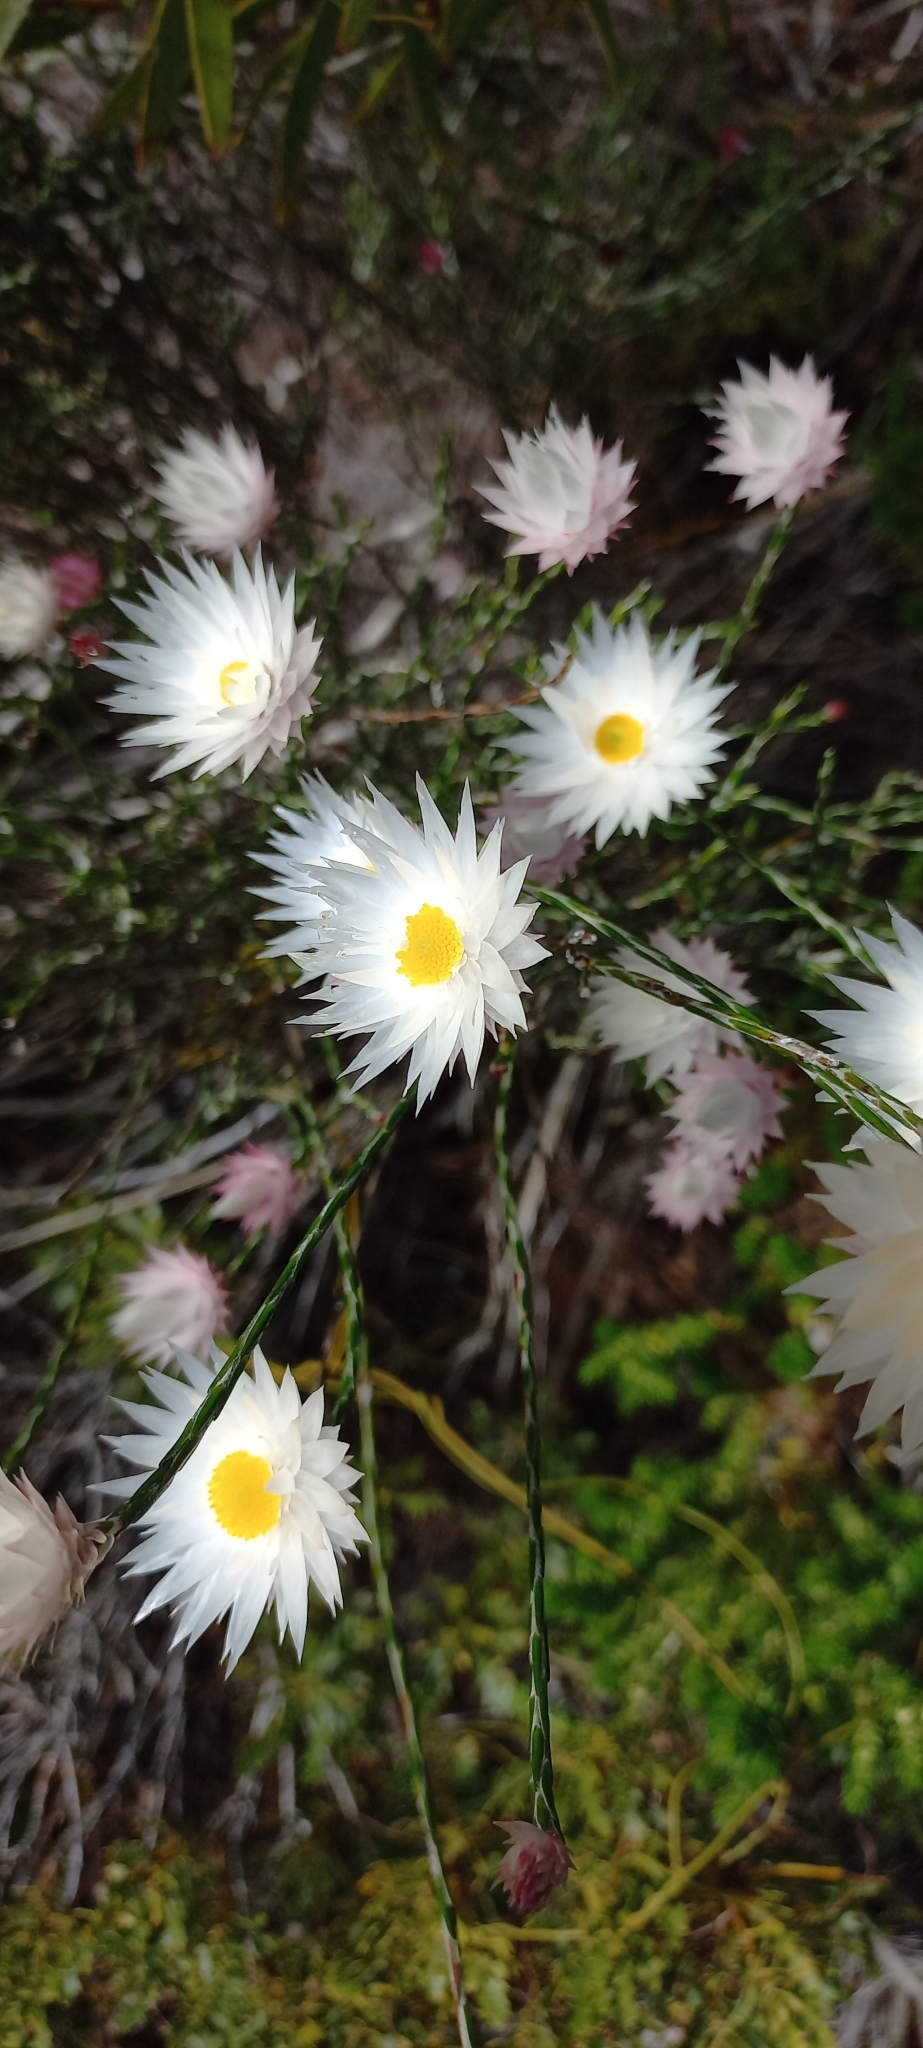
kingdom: Plantae
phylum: Tracheophyta
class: Magnoliopsida
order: Asterales
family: Asteraceae
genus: Edmondia
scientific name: Edmondia sesamoides
